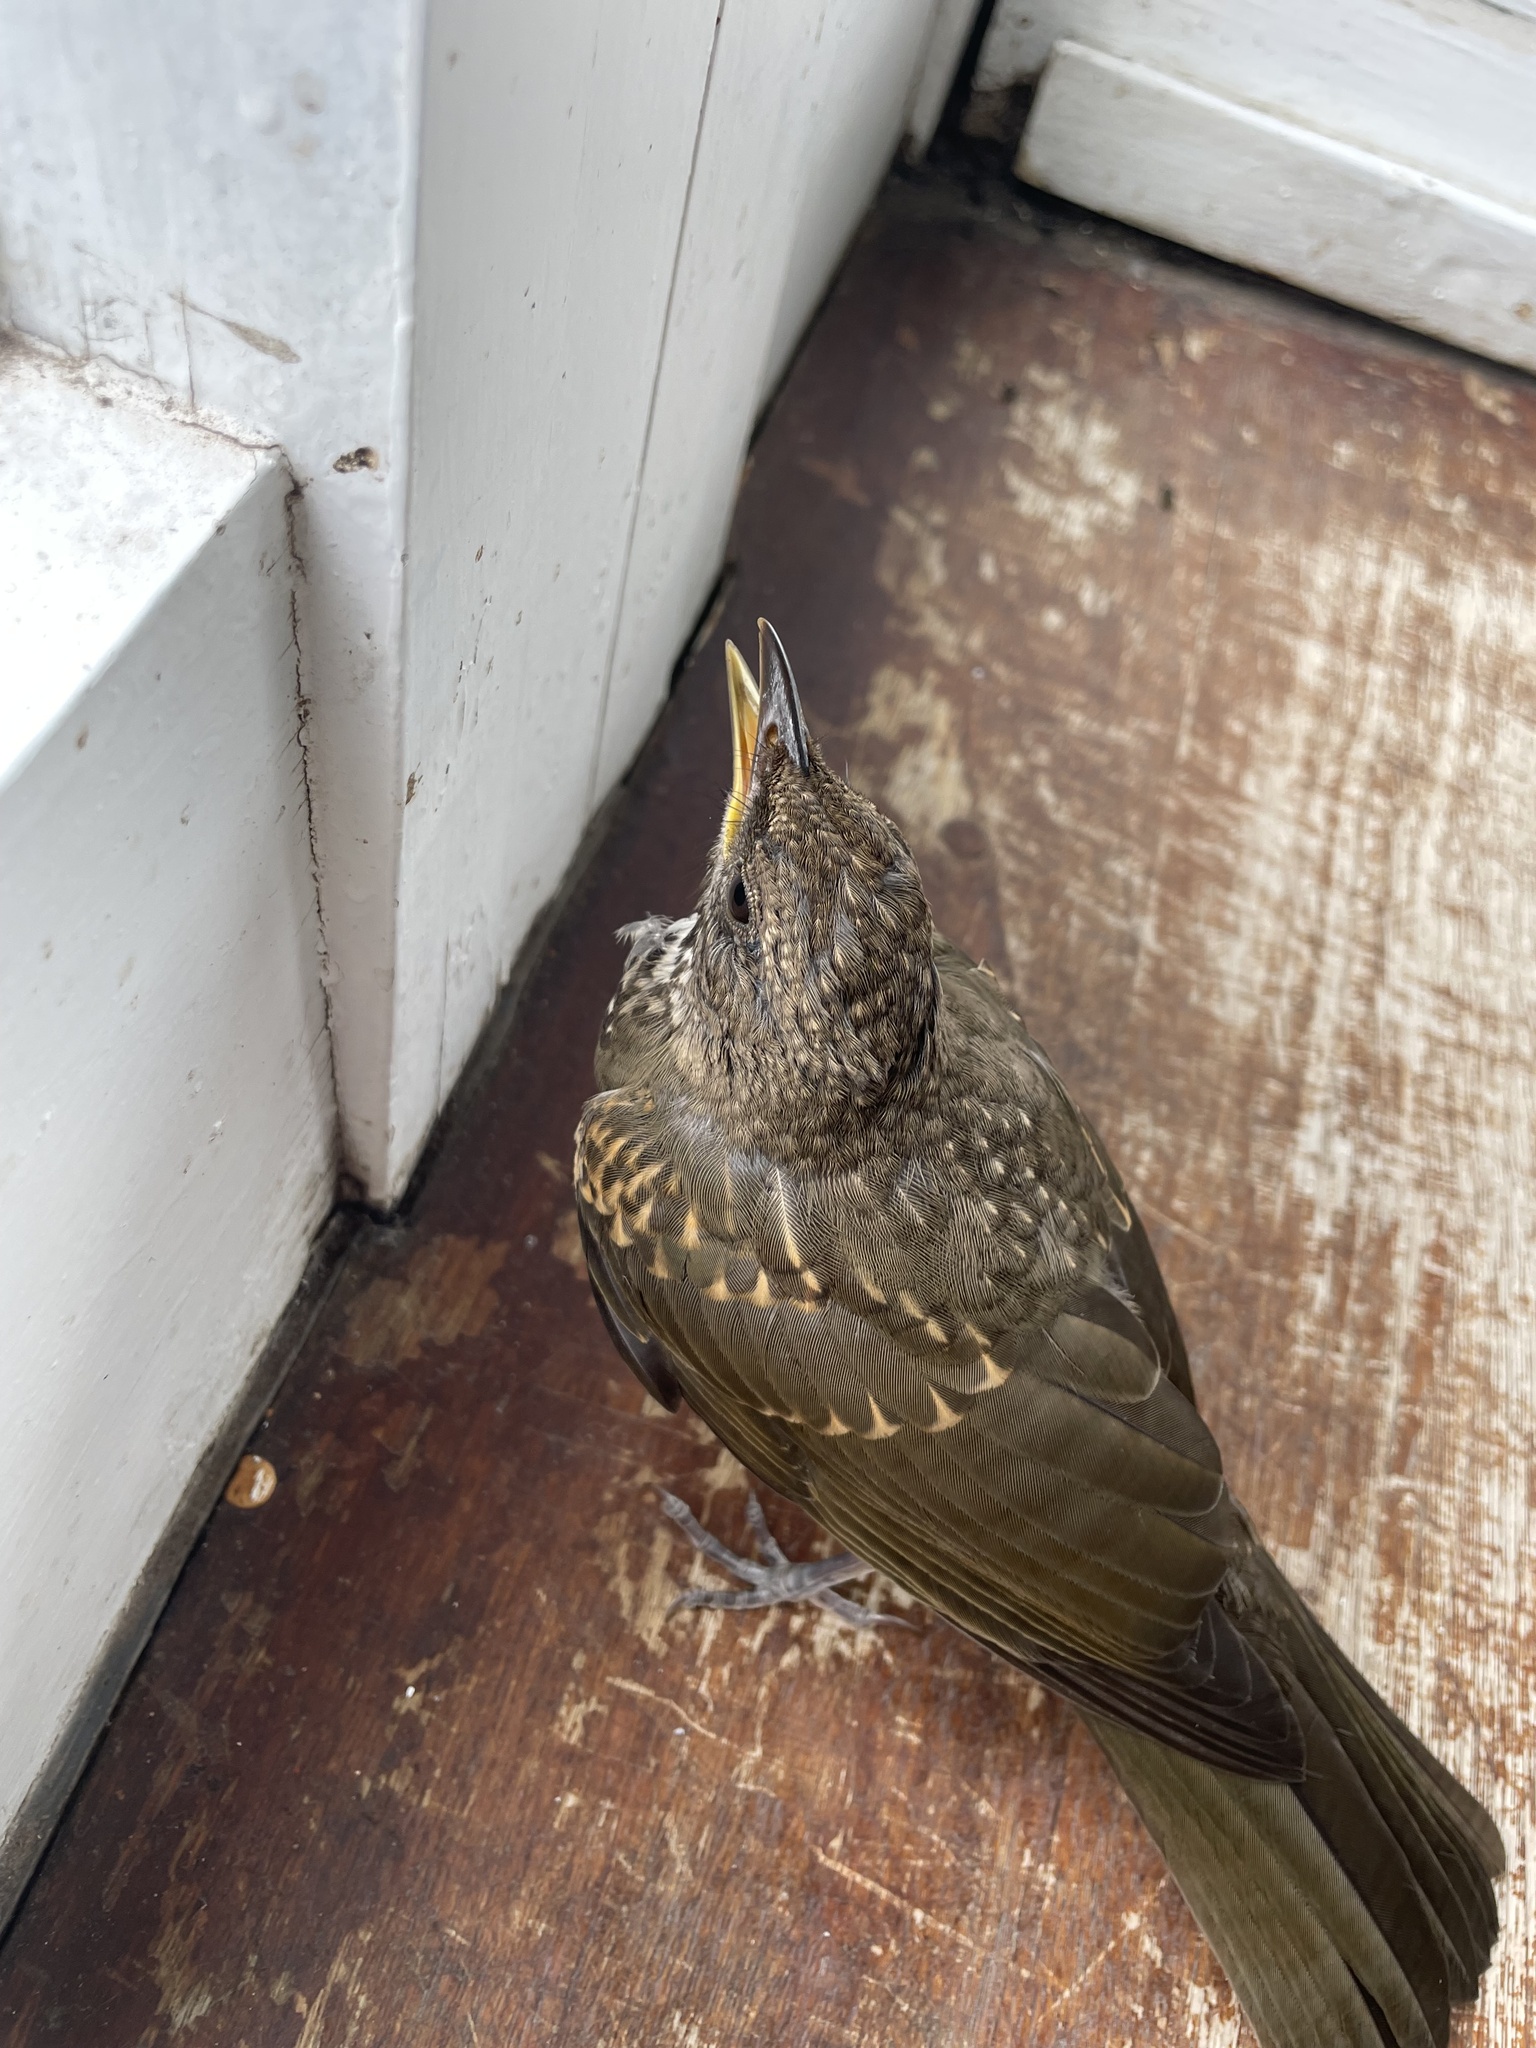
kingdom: Animalia
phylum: Chordata
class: Aves
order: Passeriformes
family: Turdidae
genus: Turdus
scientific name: Turdus amaurochalinus
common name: Creamy-bellied thrush
